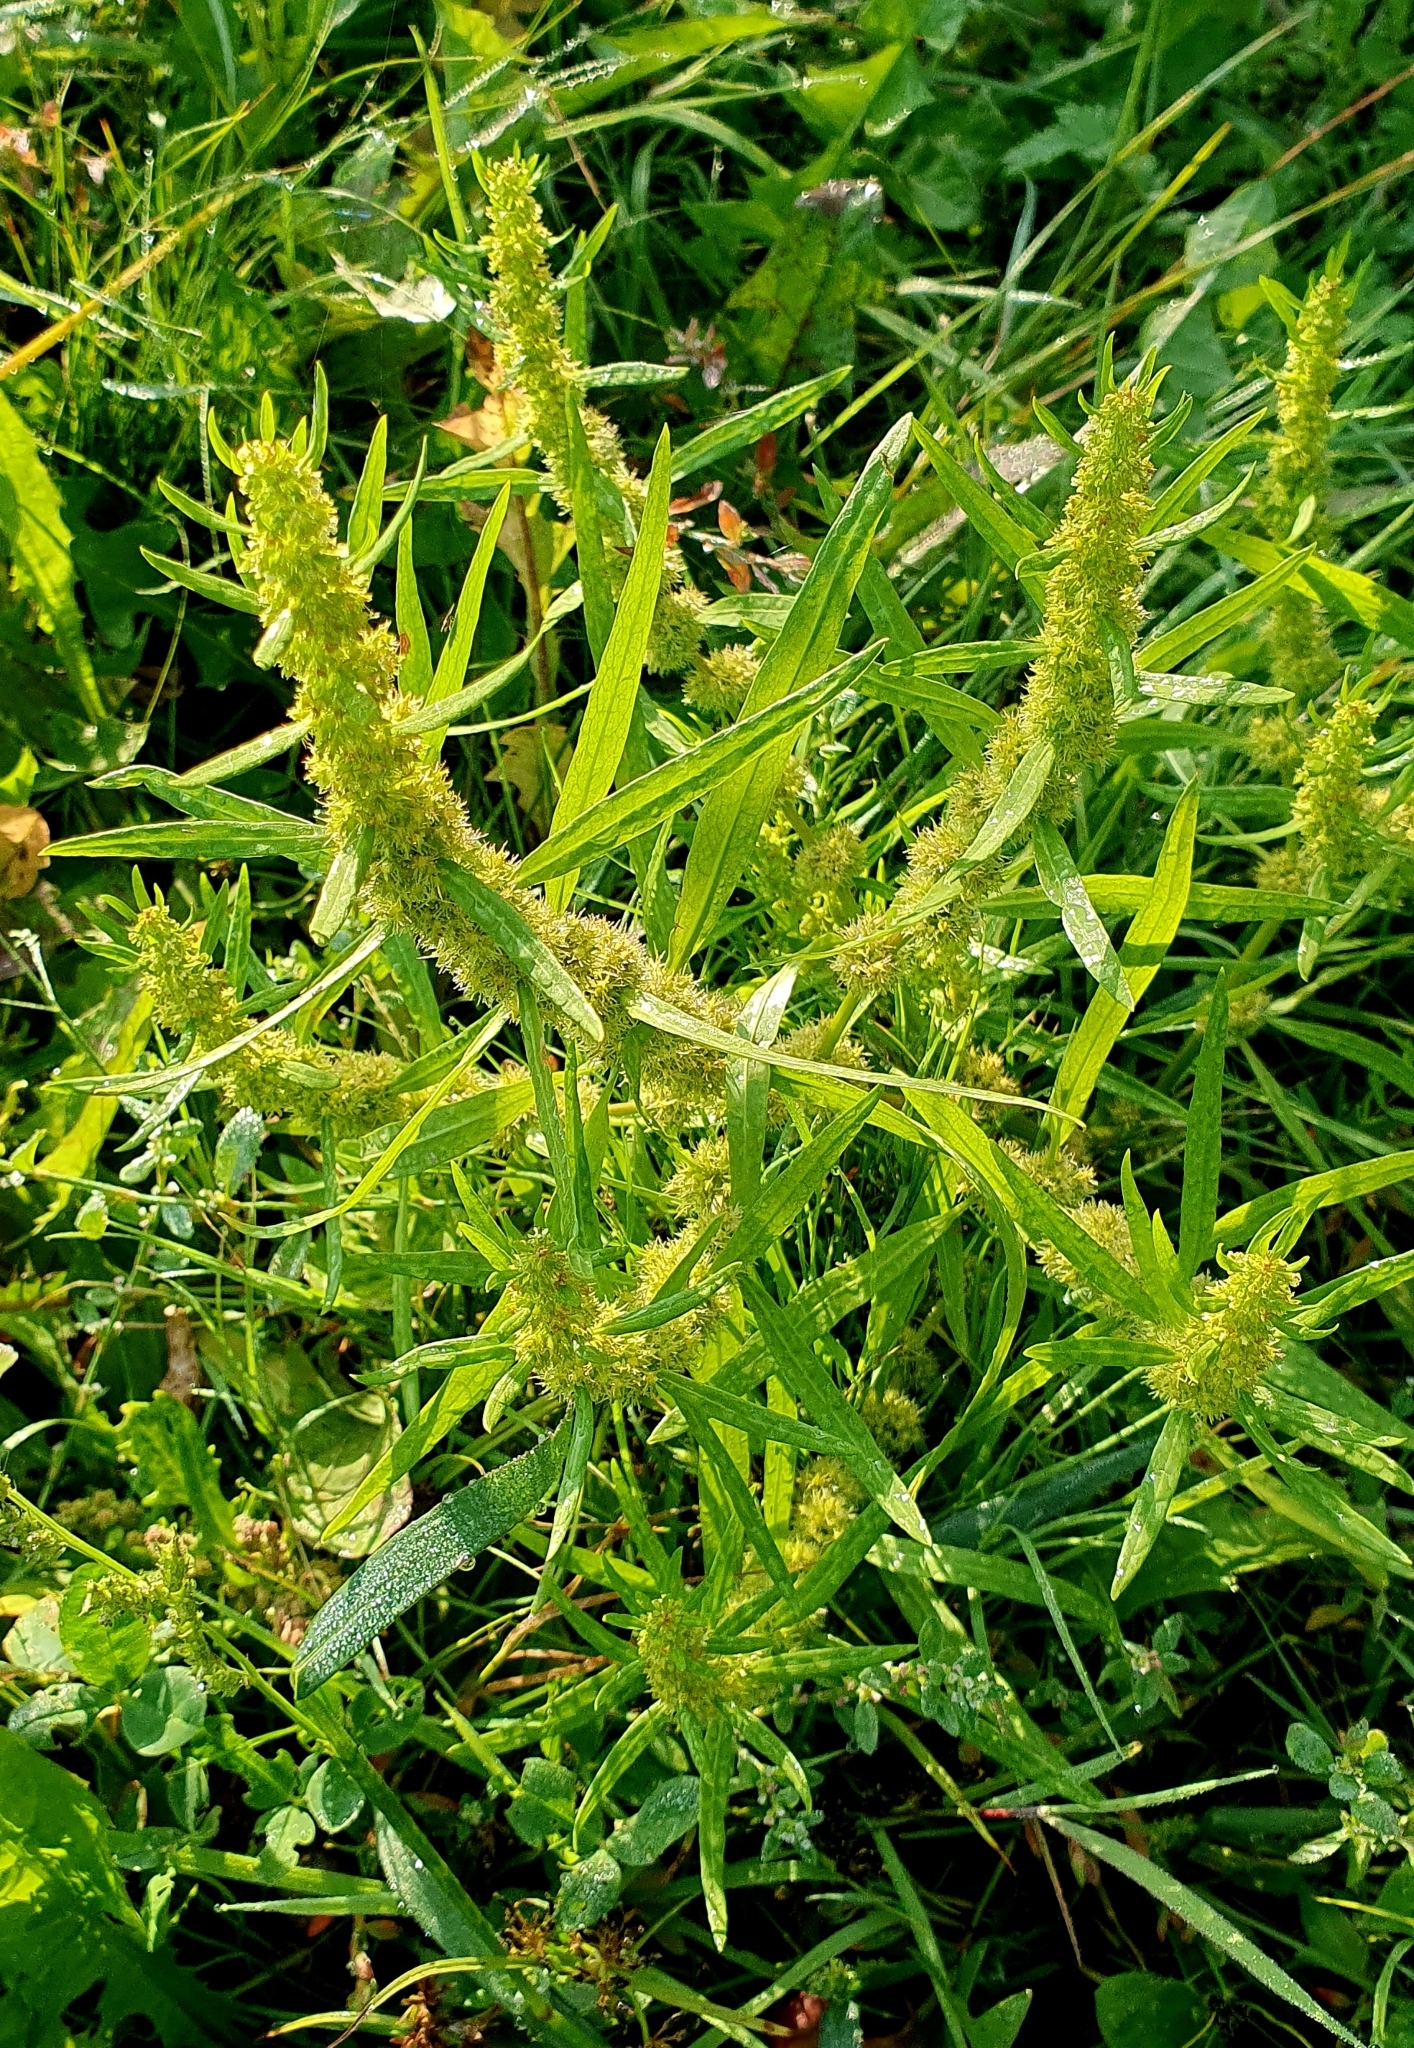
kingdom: Plantae
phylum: Tracheophyta
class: Magnoliopsida
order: Caryophyllales
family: Polygonaceae
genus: Rumex
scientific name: Rumex maritimus
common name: Golden dock
